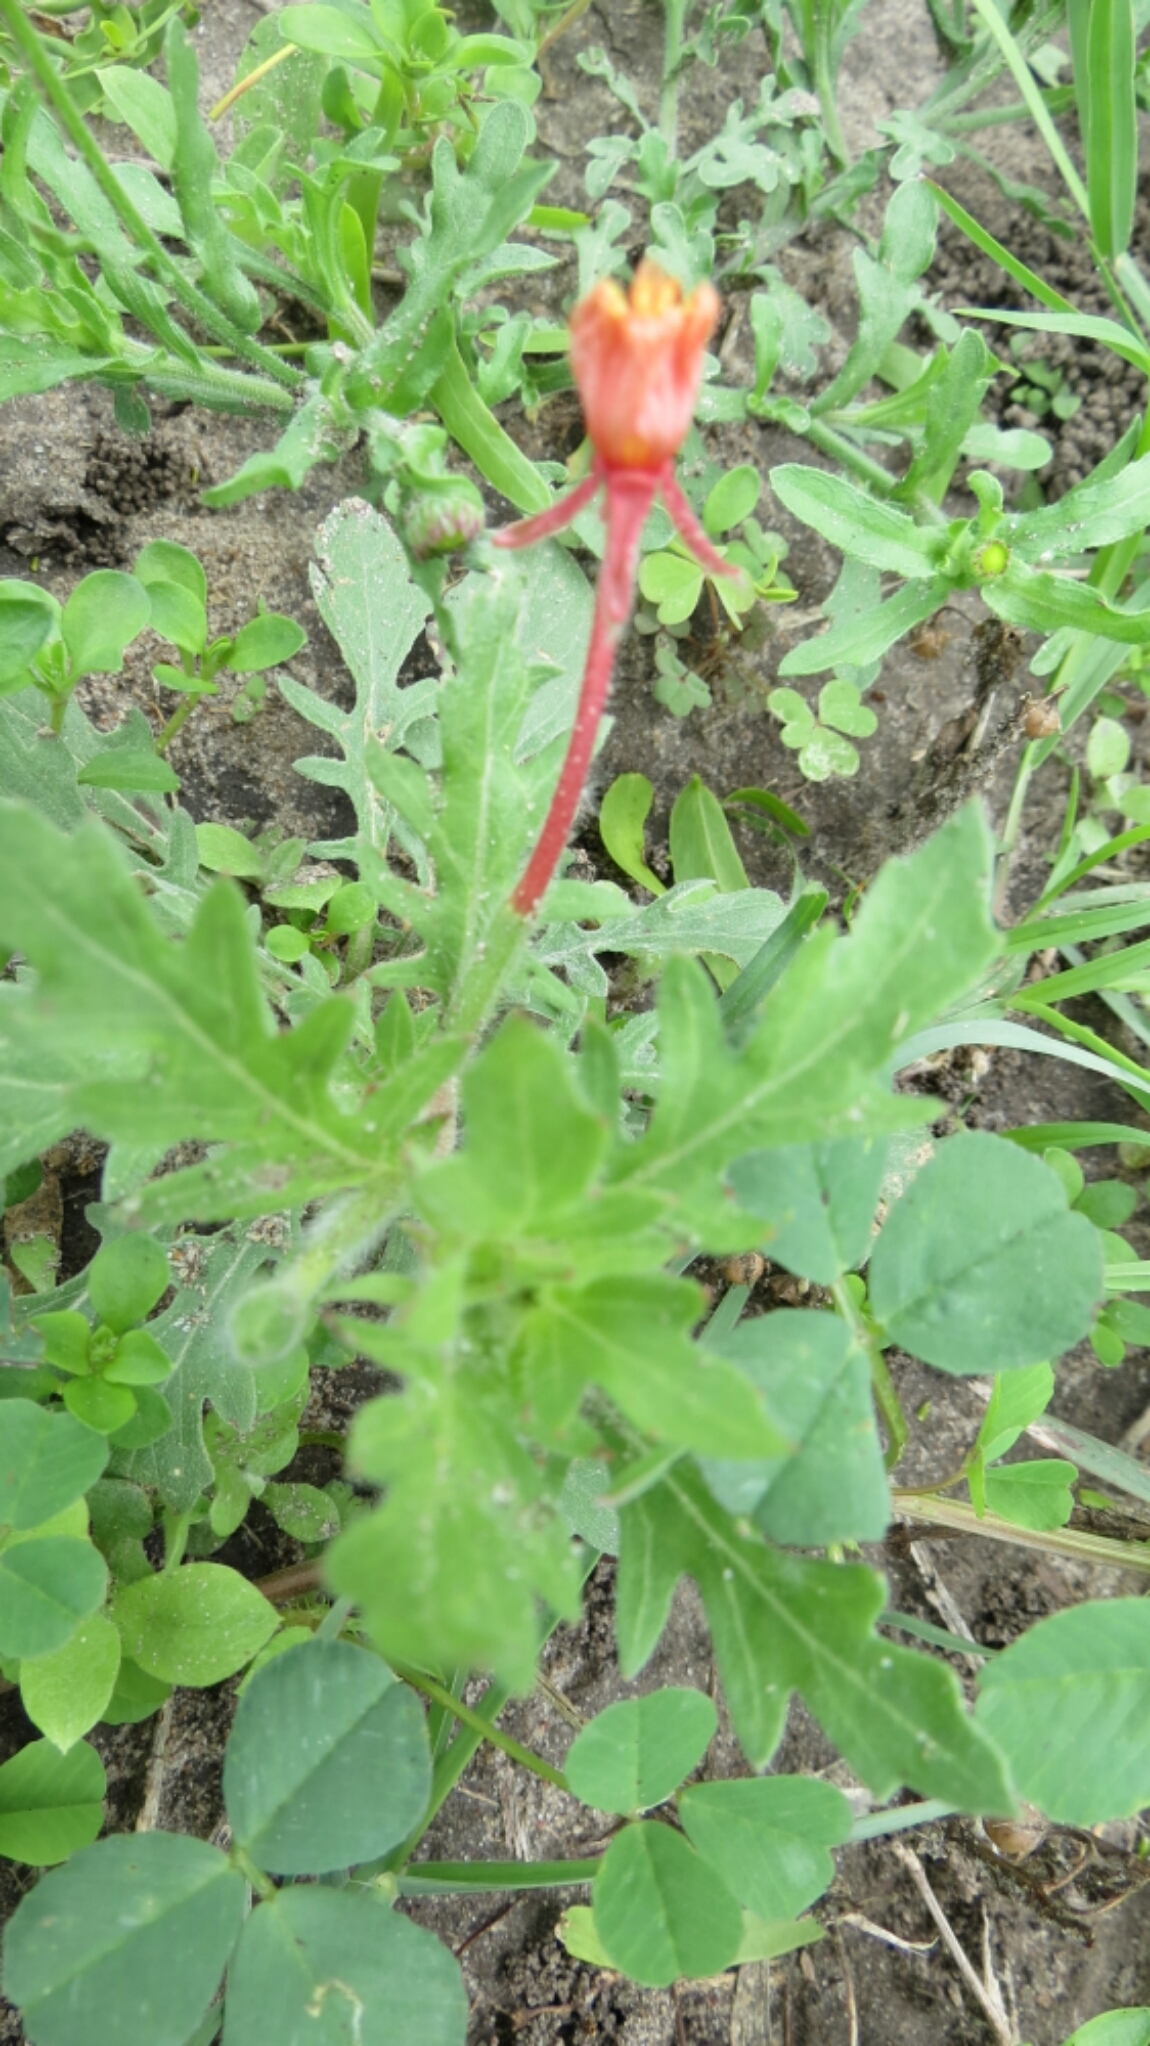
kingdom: Plantae
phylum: Tracheophyta
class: Magnoliopsida
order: Myrtales
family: Onagraceae
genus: Oenothera
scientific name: Oenothera laciniata
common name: Cut-leaved evening-primrose
